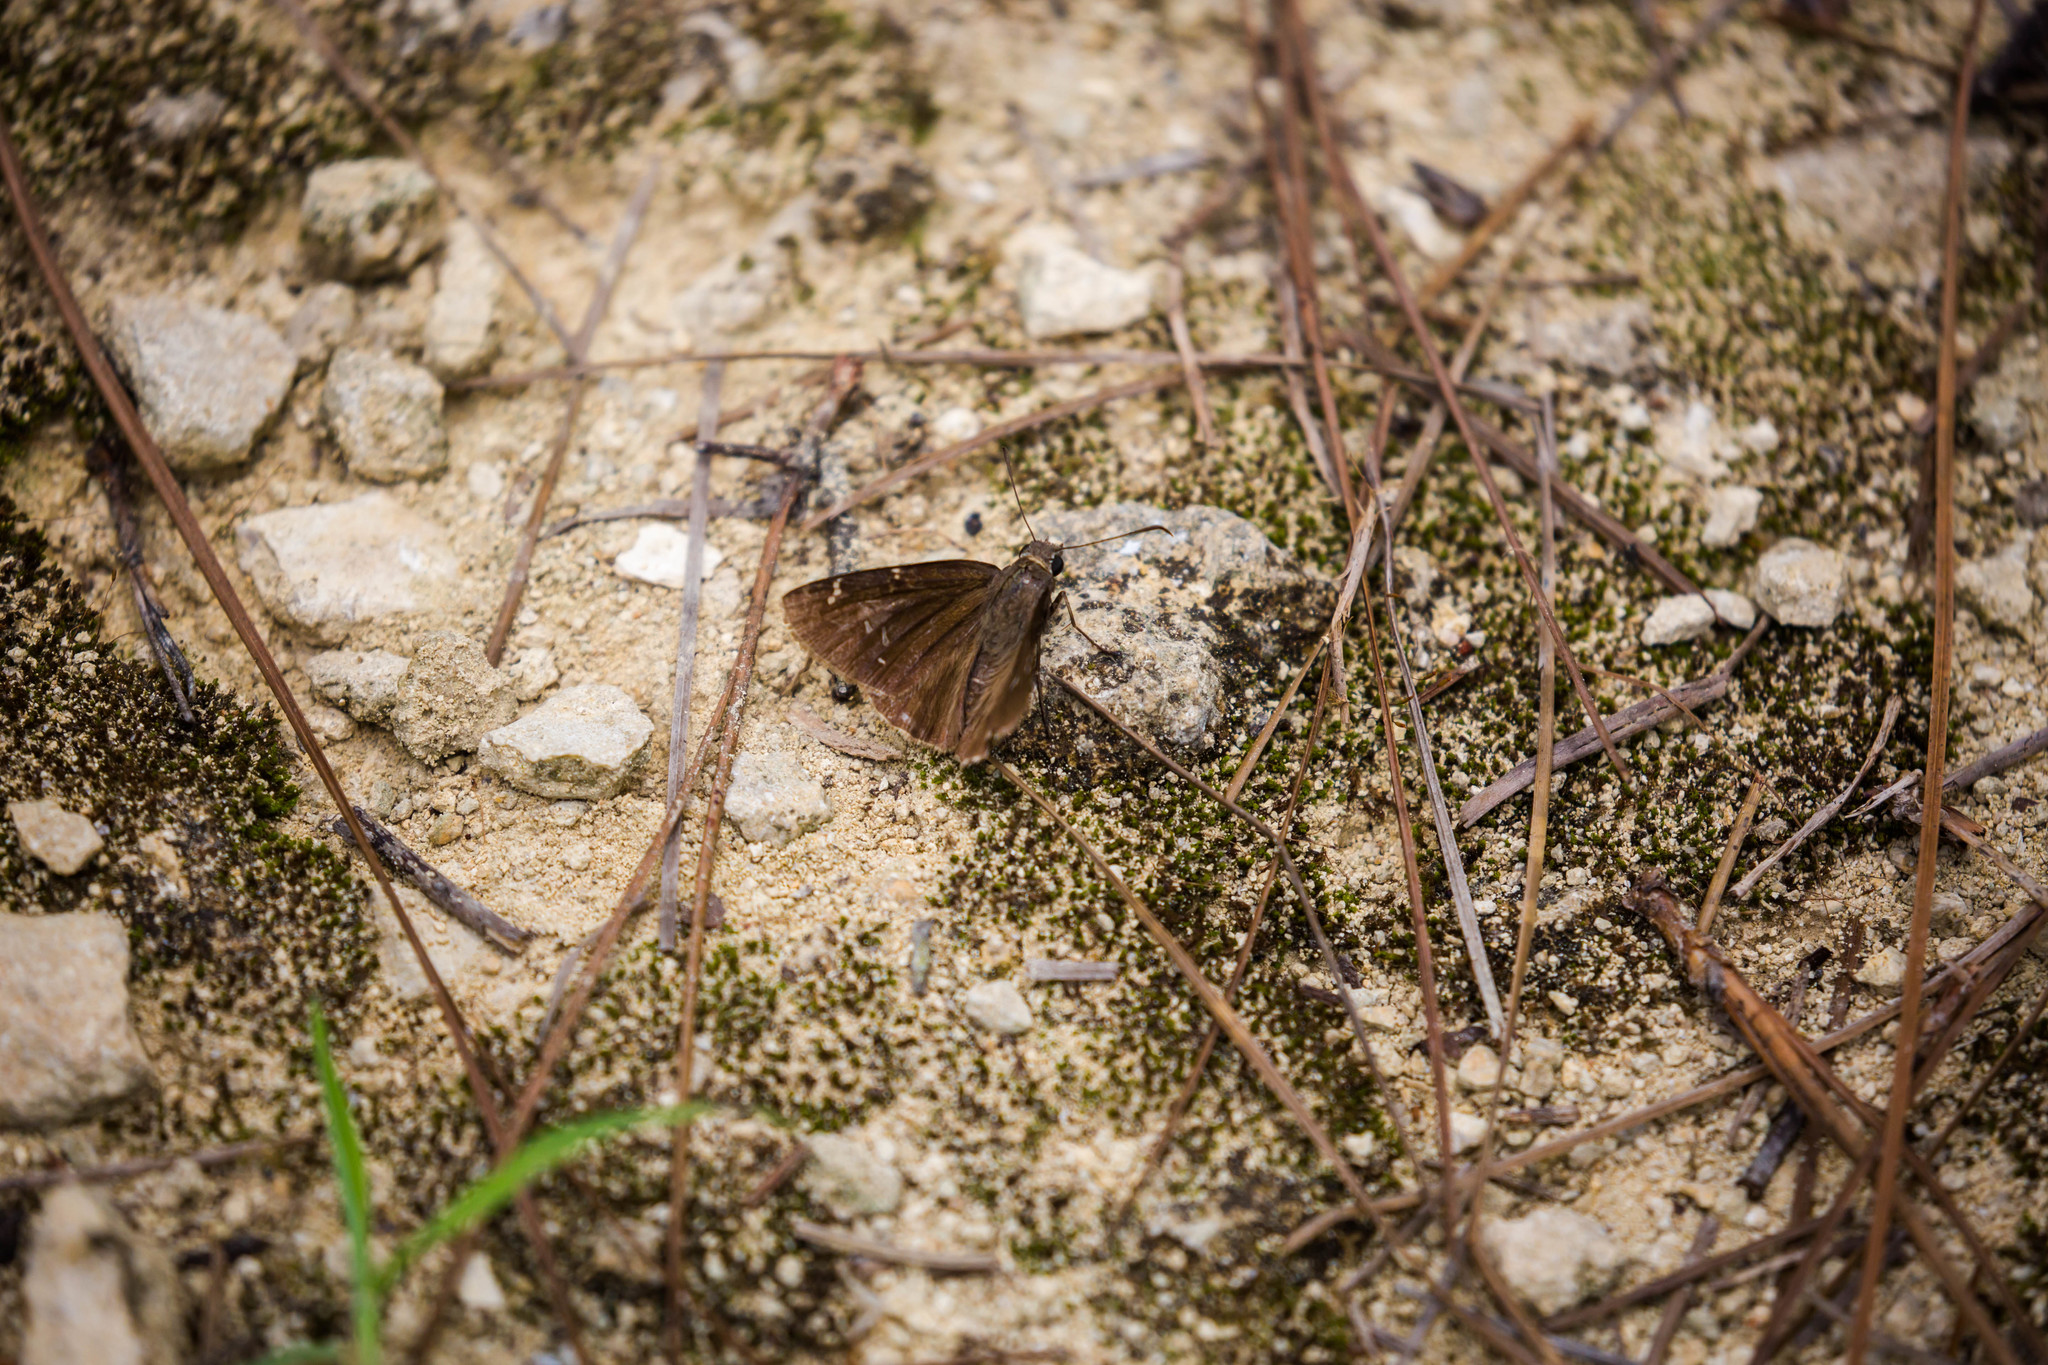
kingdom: Animalia
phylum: Arthropoda
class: Insecta
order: Lepidoptera
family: Hesperiidae
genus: Thorybes
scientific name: Thorybes mexicana
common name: Mexican cloudywing
